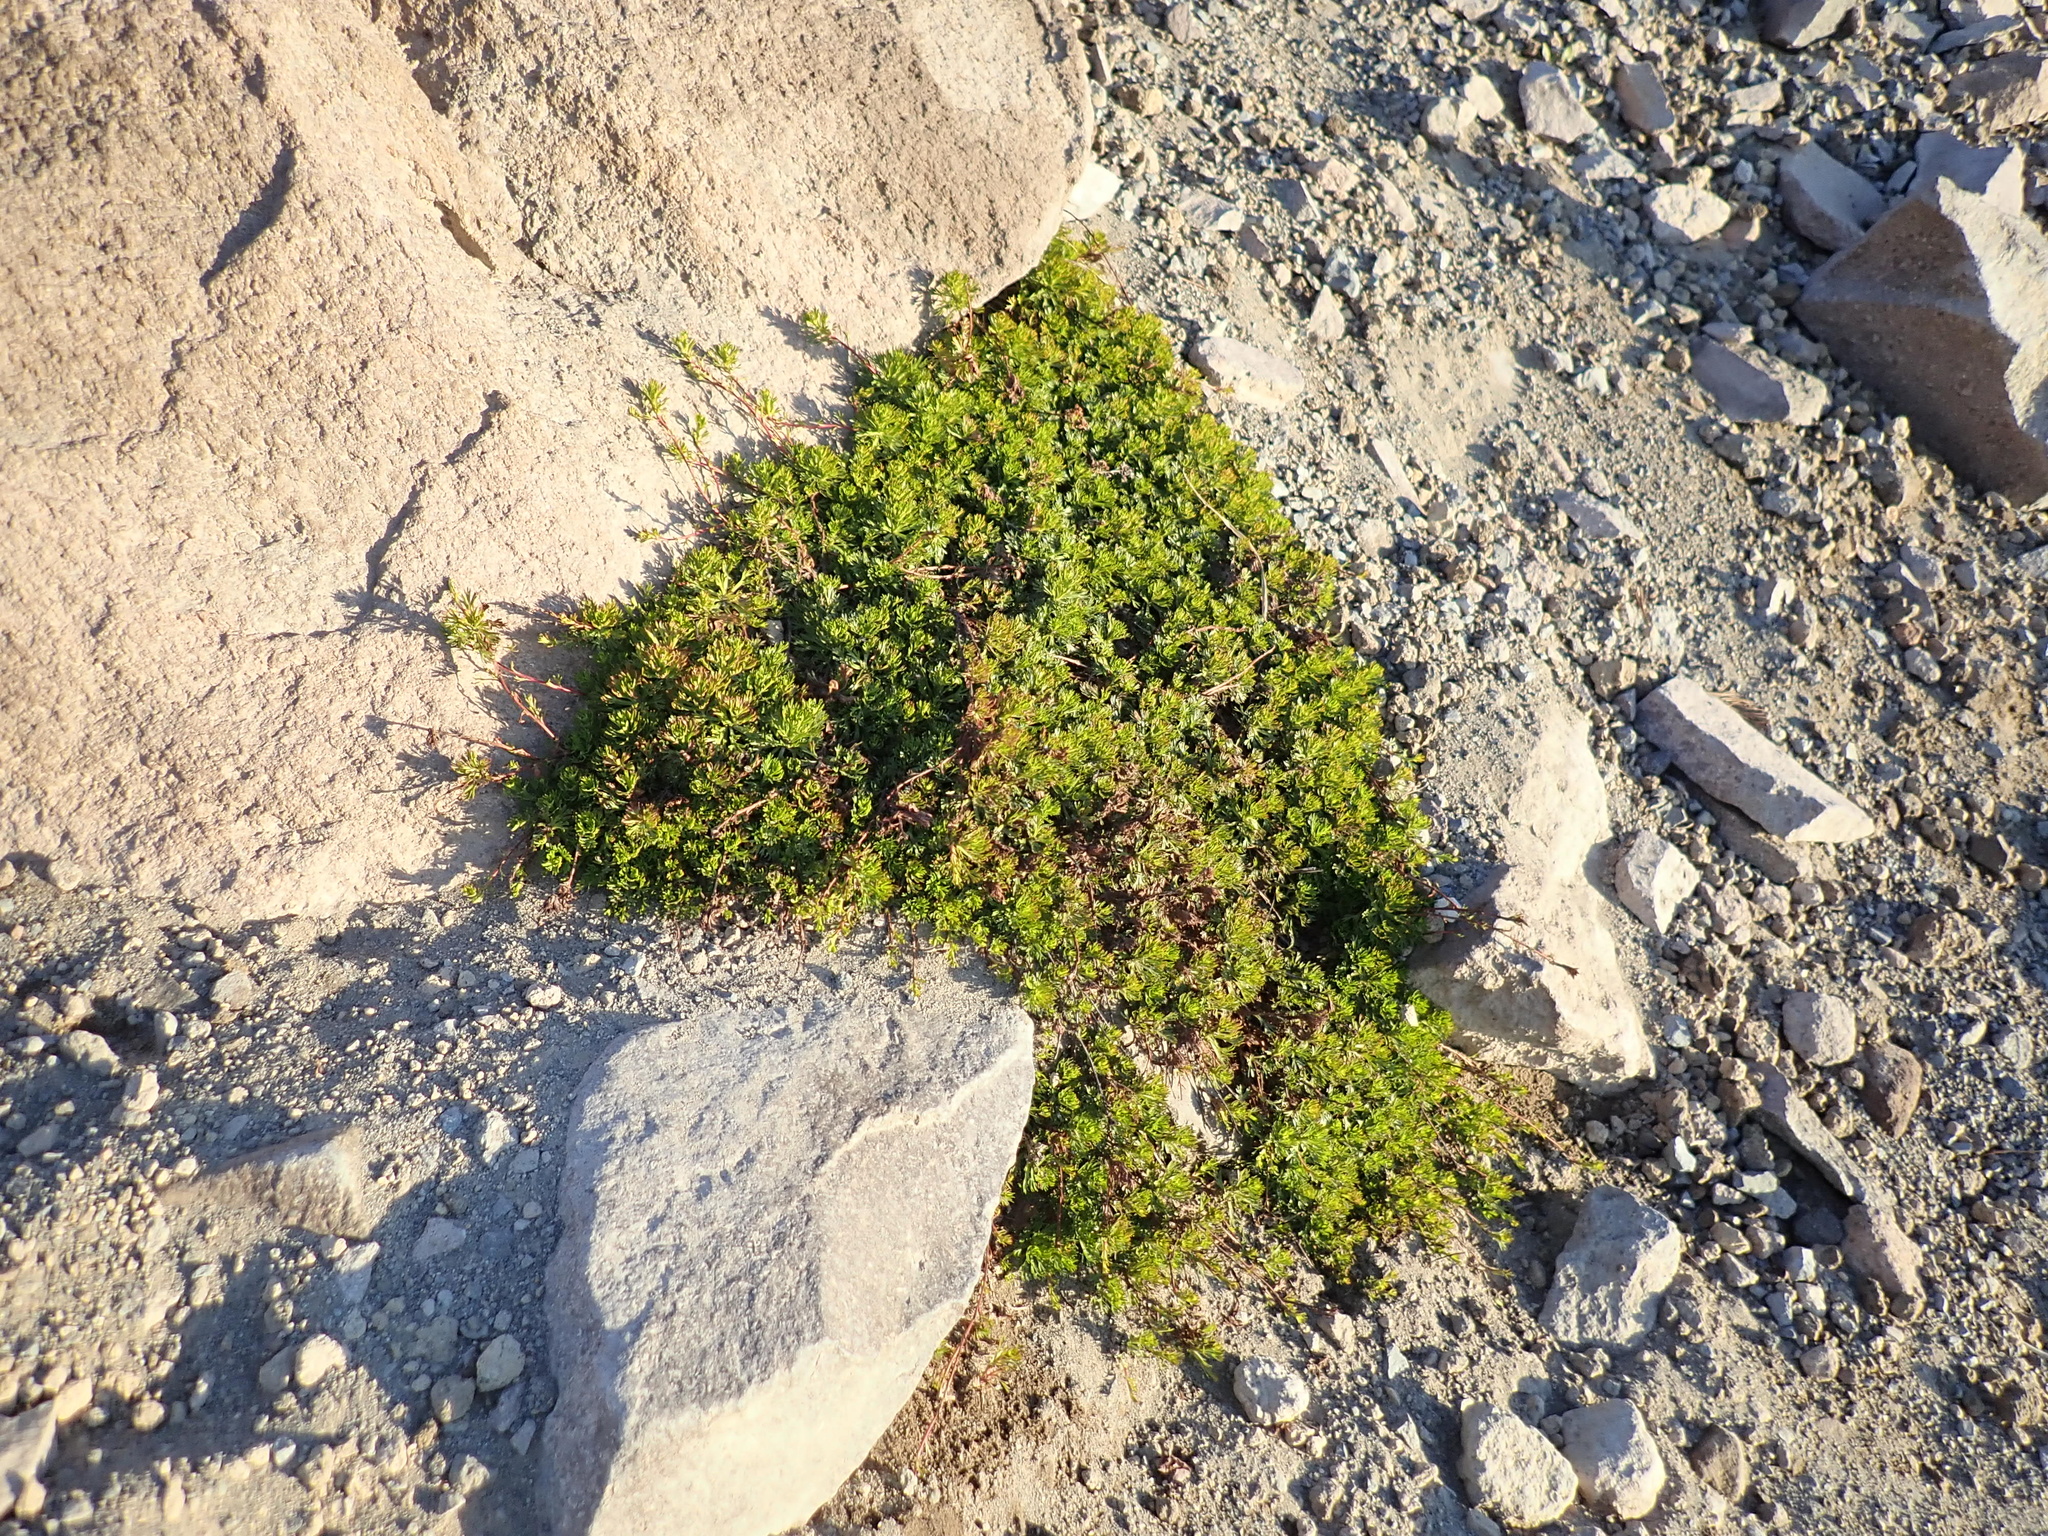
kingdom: Plantae
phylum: Tracheophyta
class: Magnoliopsida
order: Rosales
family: Rosaceae
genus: Luetkea
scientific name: Luetkea pectinata
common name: Partridgefoot
